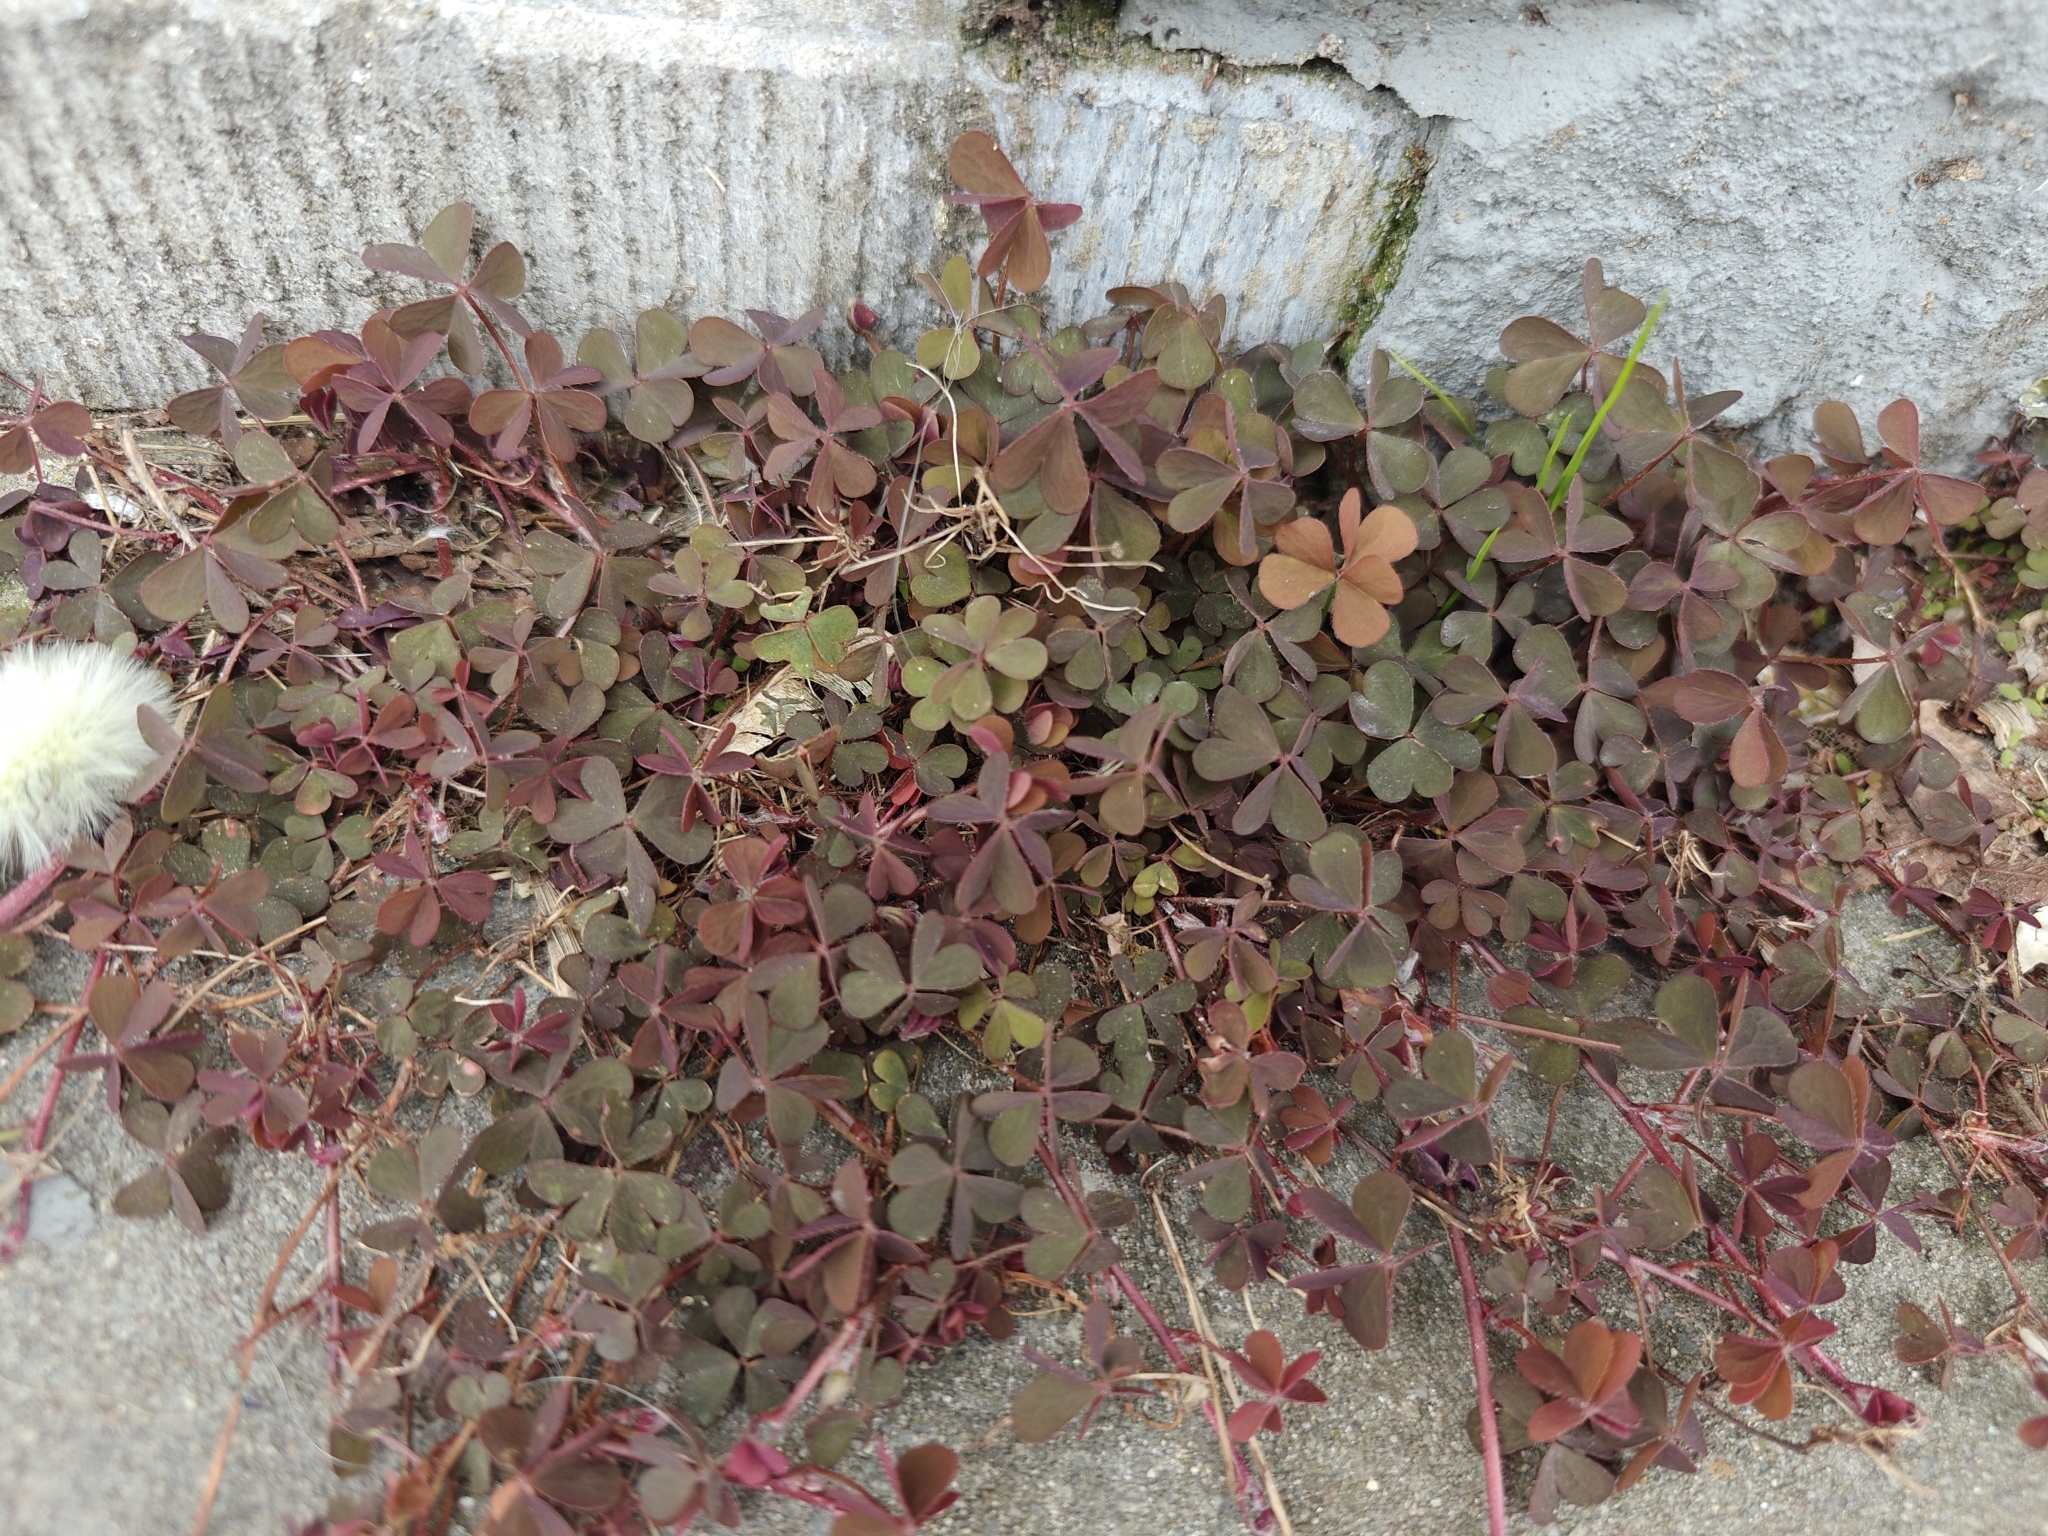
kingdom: Plantae
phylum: Tracheophyta
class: Magnoliopsida
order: Oxalidales
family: Oxalidaceae
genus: Oxalis
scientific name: Oxalis corniculata
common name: Procumbent yellow-sorrel
